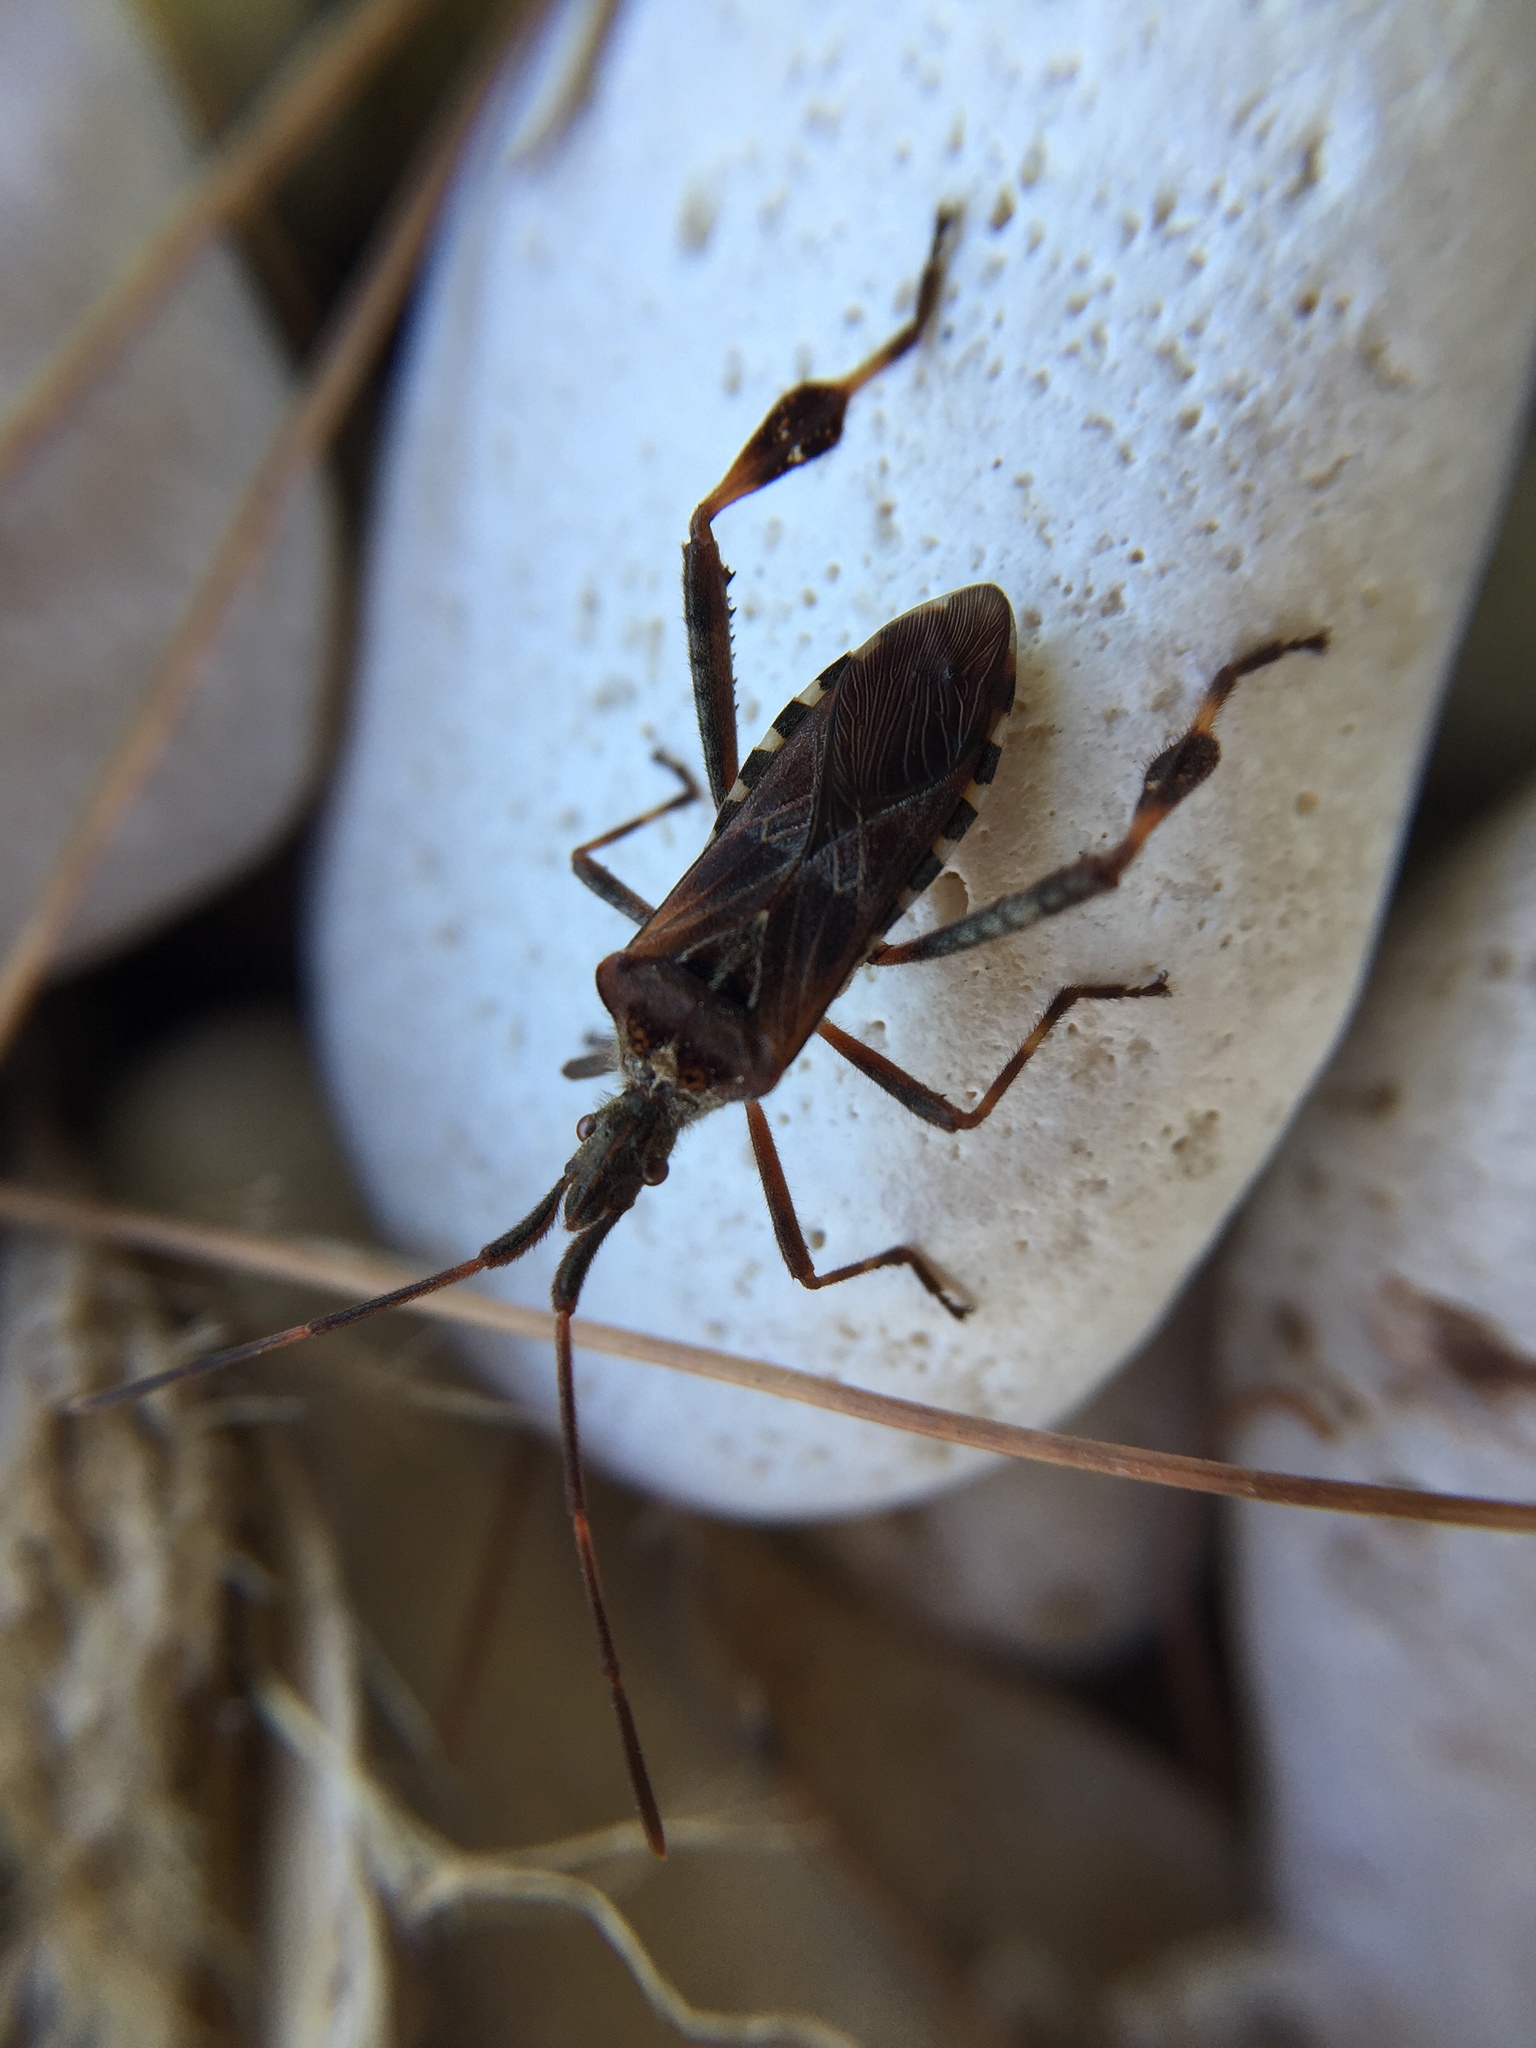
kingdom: Animalia
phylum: Arthropoda
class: Insecta
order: Hemiptera
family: Coreidae
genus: Leptoglossus
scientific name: Leptoglossus occidentalis
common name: Western conifer-seed bug
